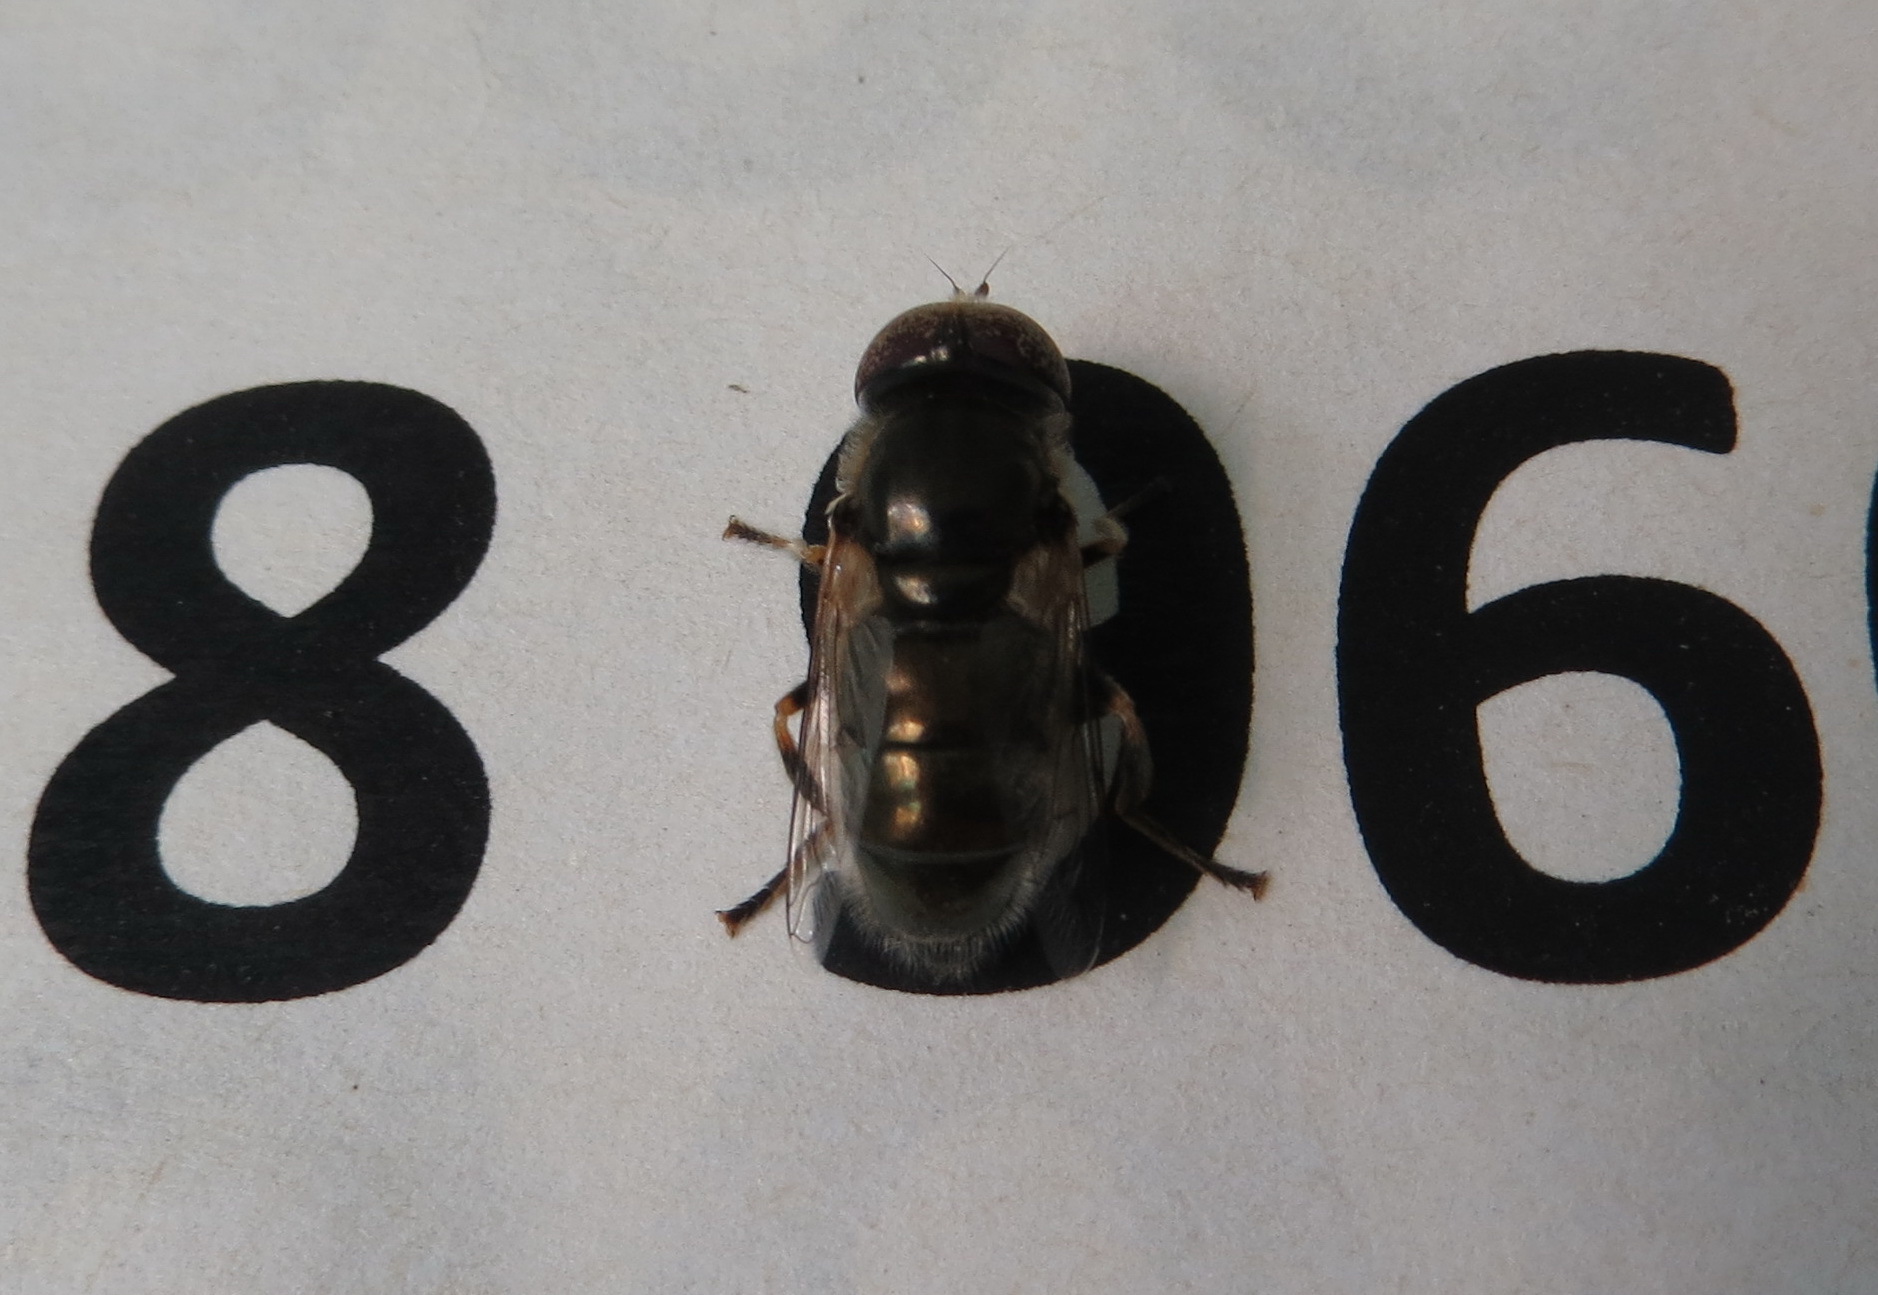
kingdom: Animalia
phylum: Arthropoda
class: Insecta
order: Diptera
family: Syrphidae
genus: Eristalinus
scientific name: Eristalinus aeneus
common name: Syrphid fly
